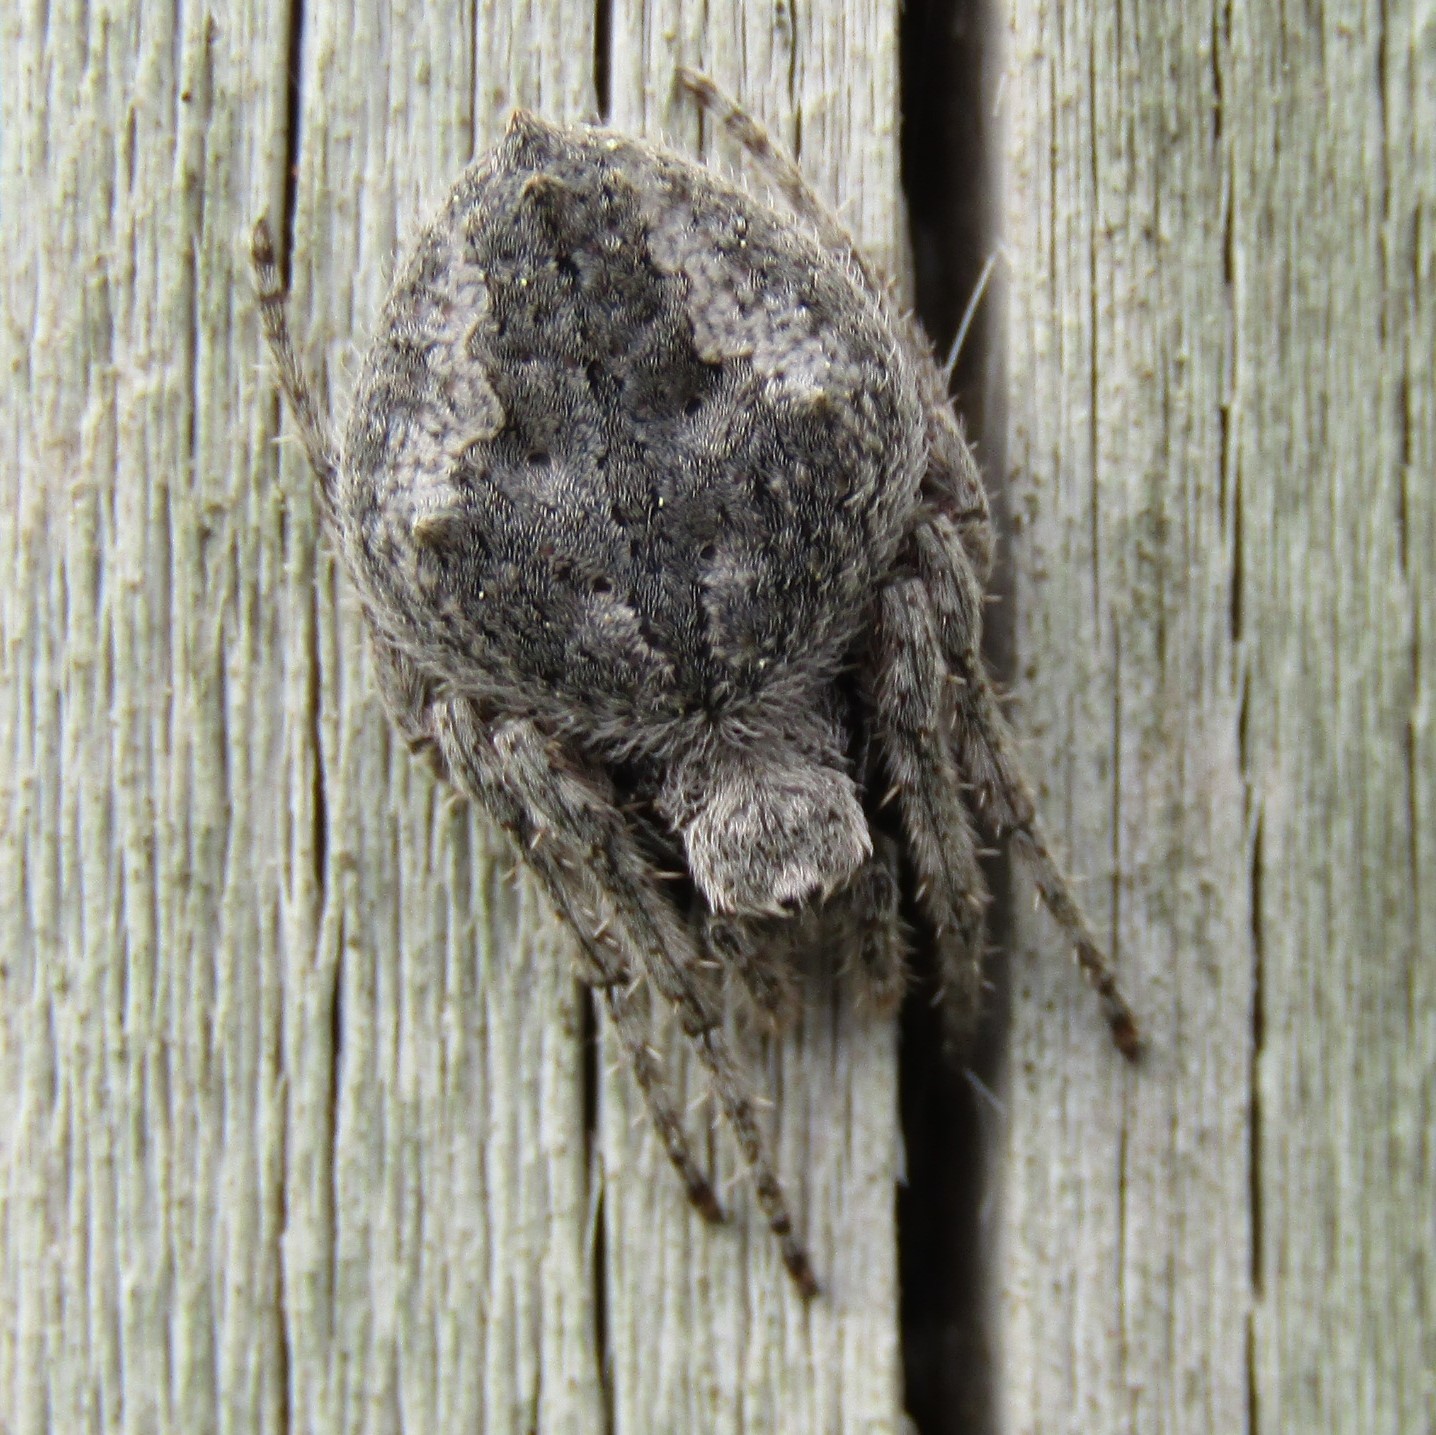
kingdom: Animalia
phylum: Arthropoda
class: Arachnida
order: Araneae
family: Araneidae
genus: Eriophora
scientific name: Eriophora pustulosa
